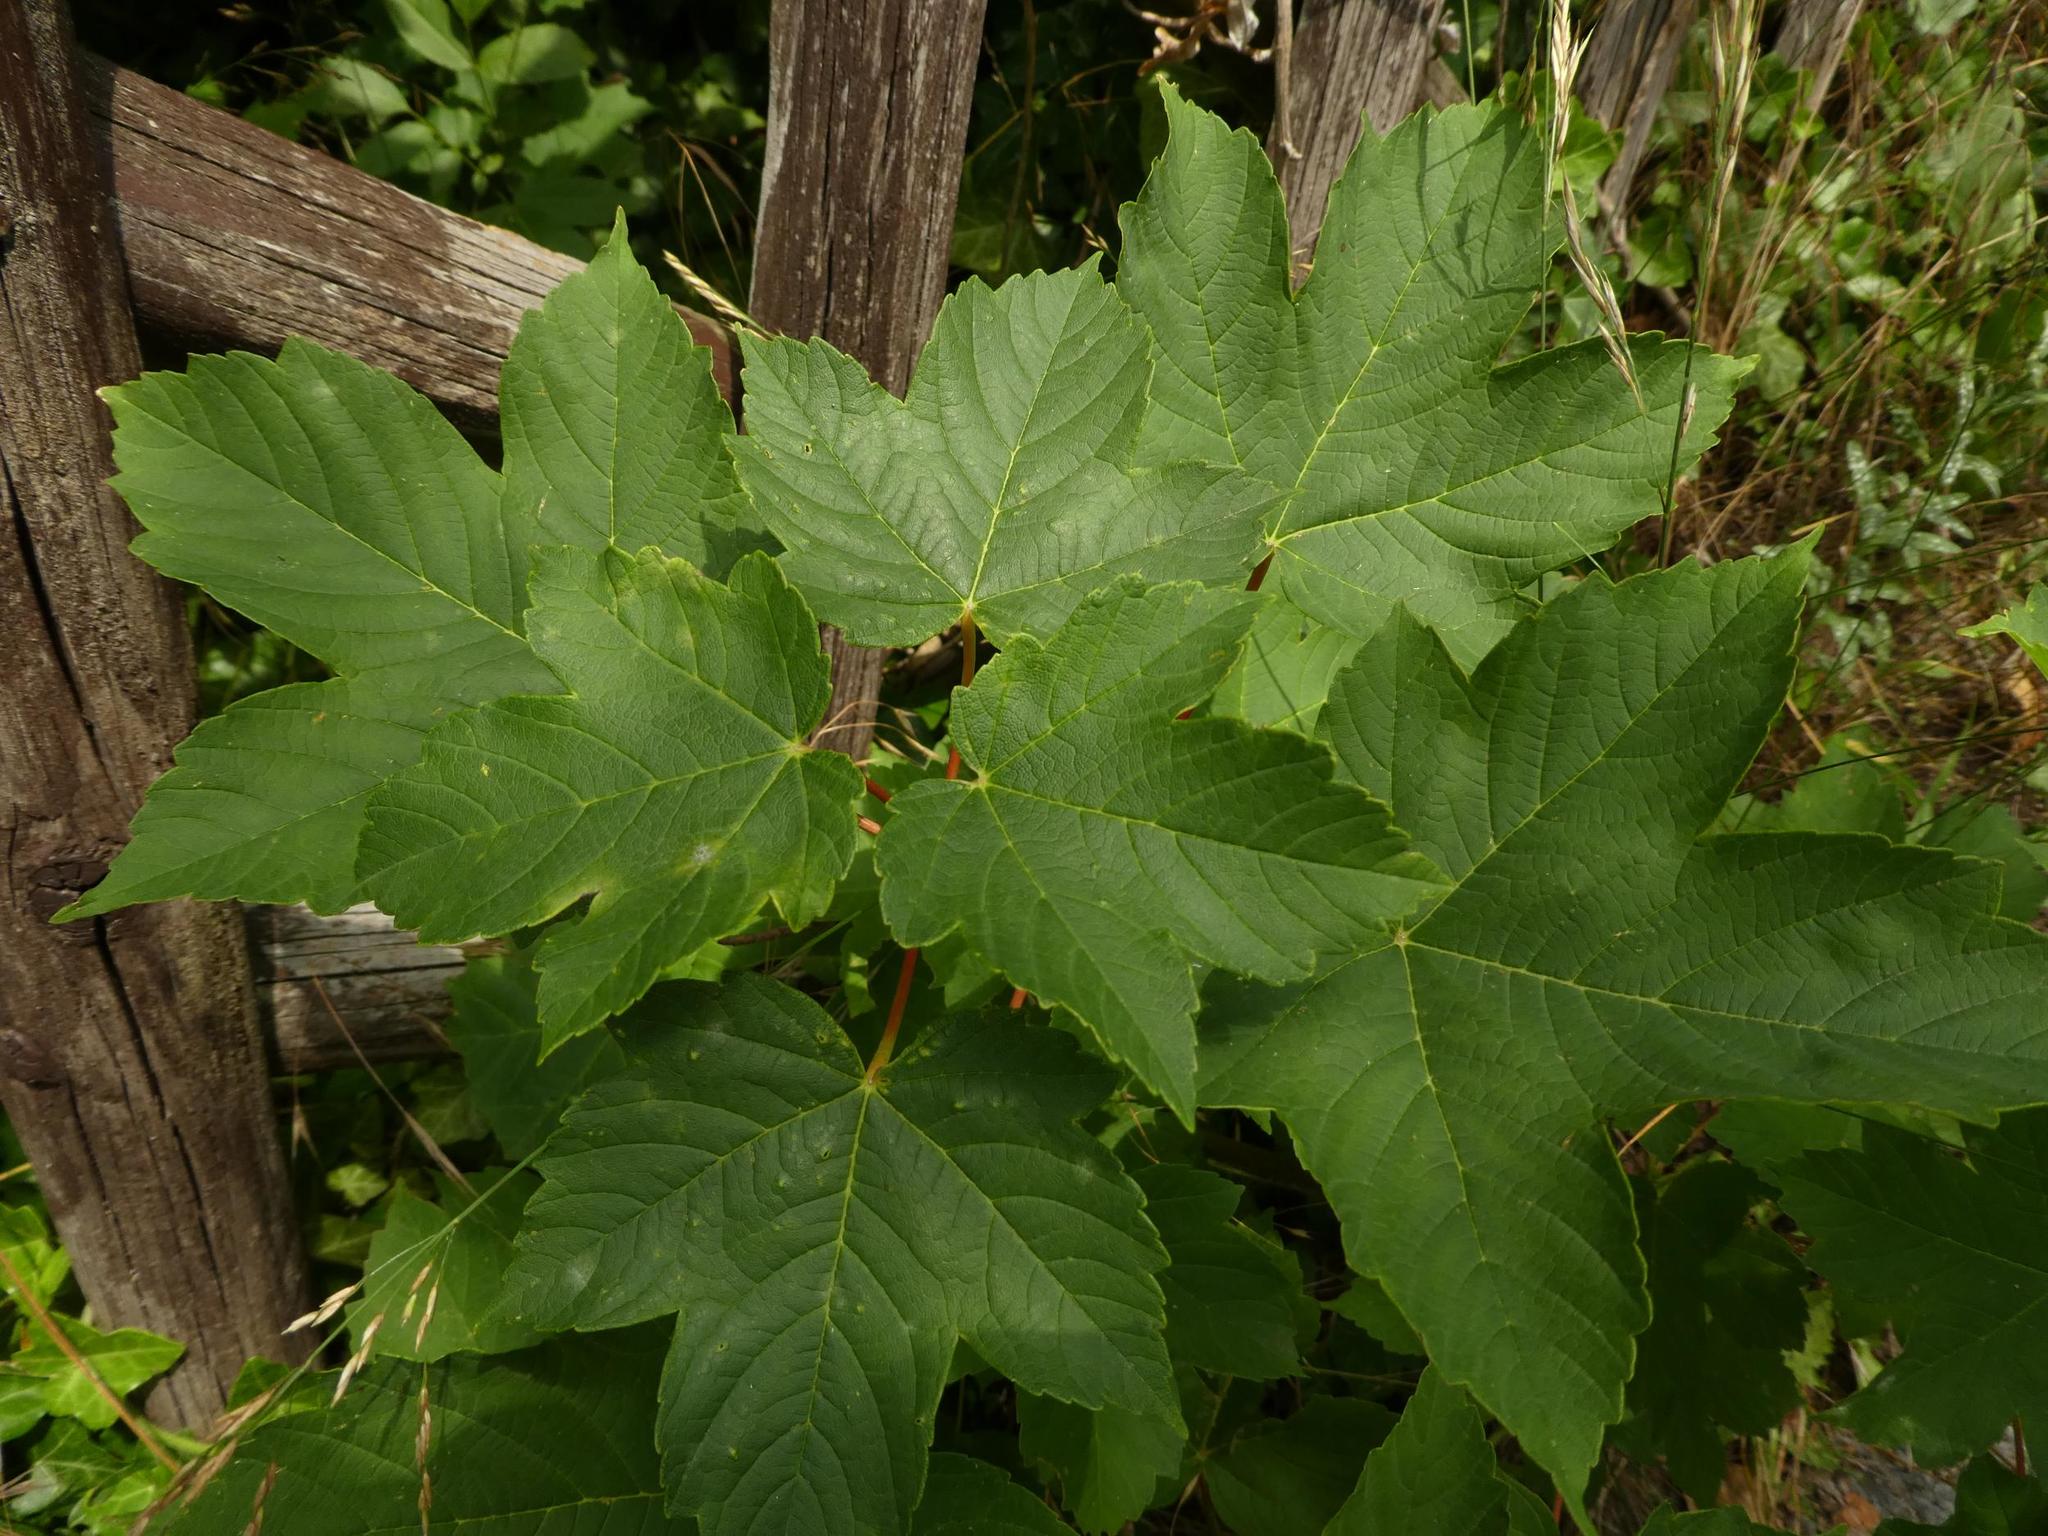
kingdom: Plantae
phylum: Tracheophyta
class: Magnoliopsida
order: Sapindales
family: Sapindaceae
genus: Acer
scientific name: Acer pseudoplatanus
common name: Sycamore
